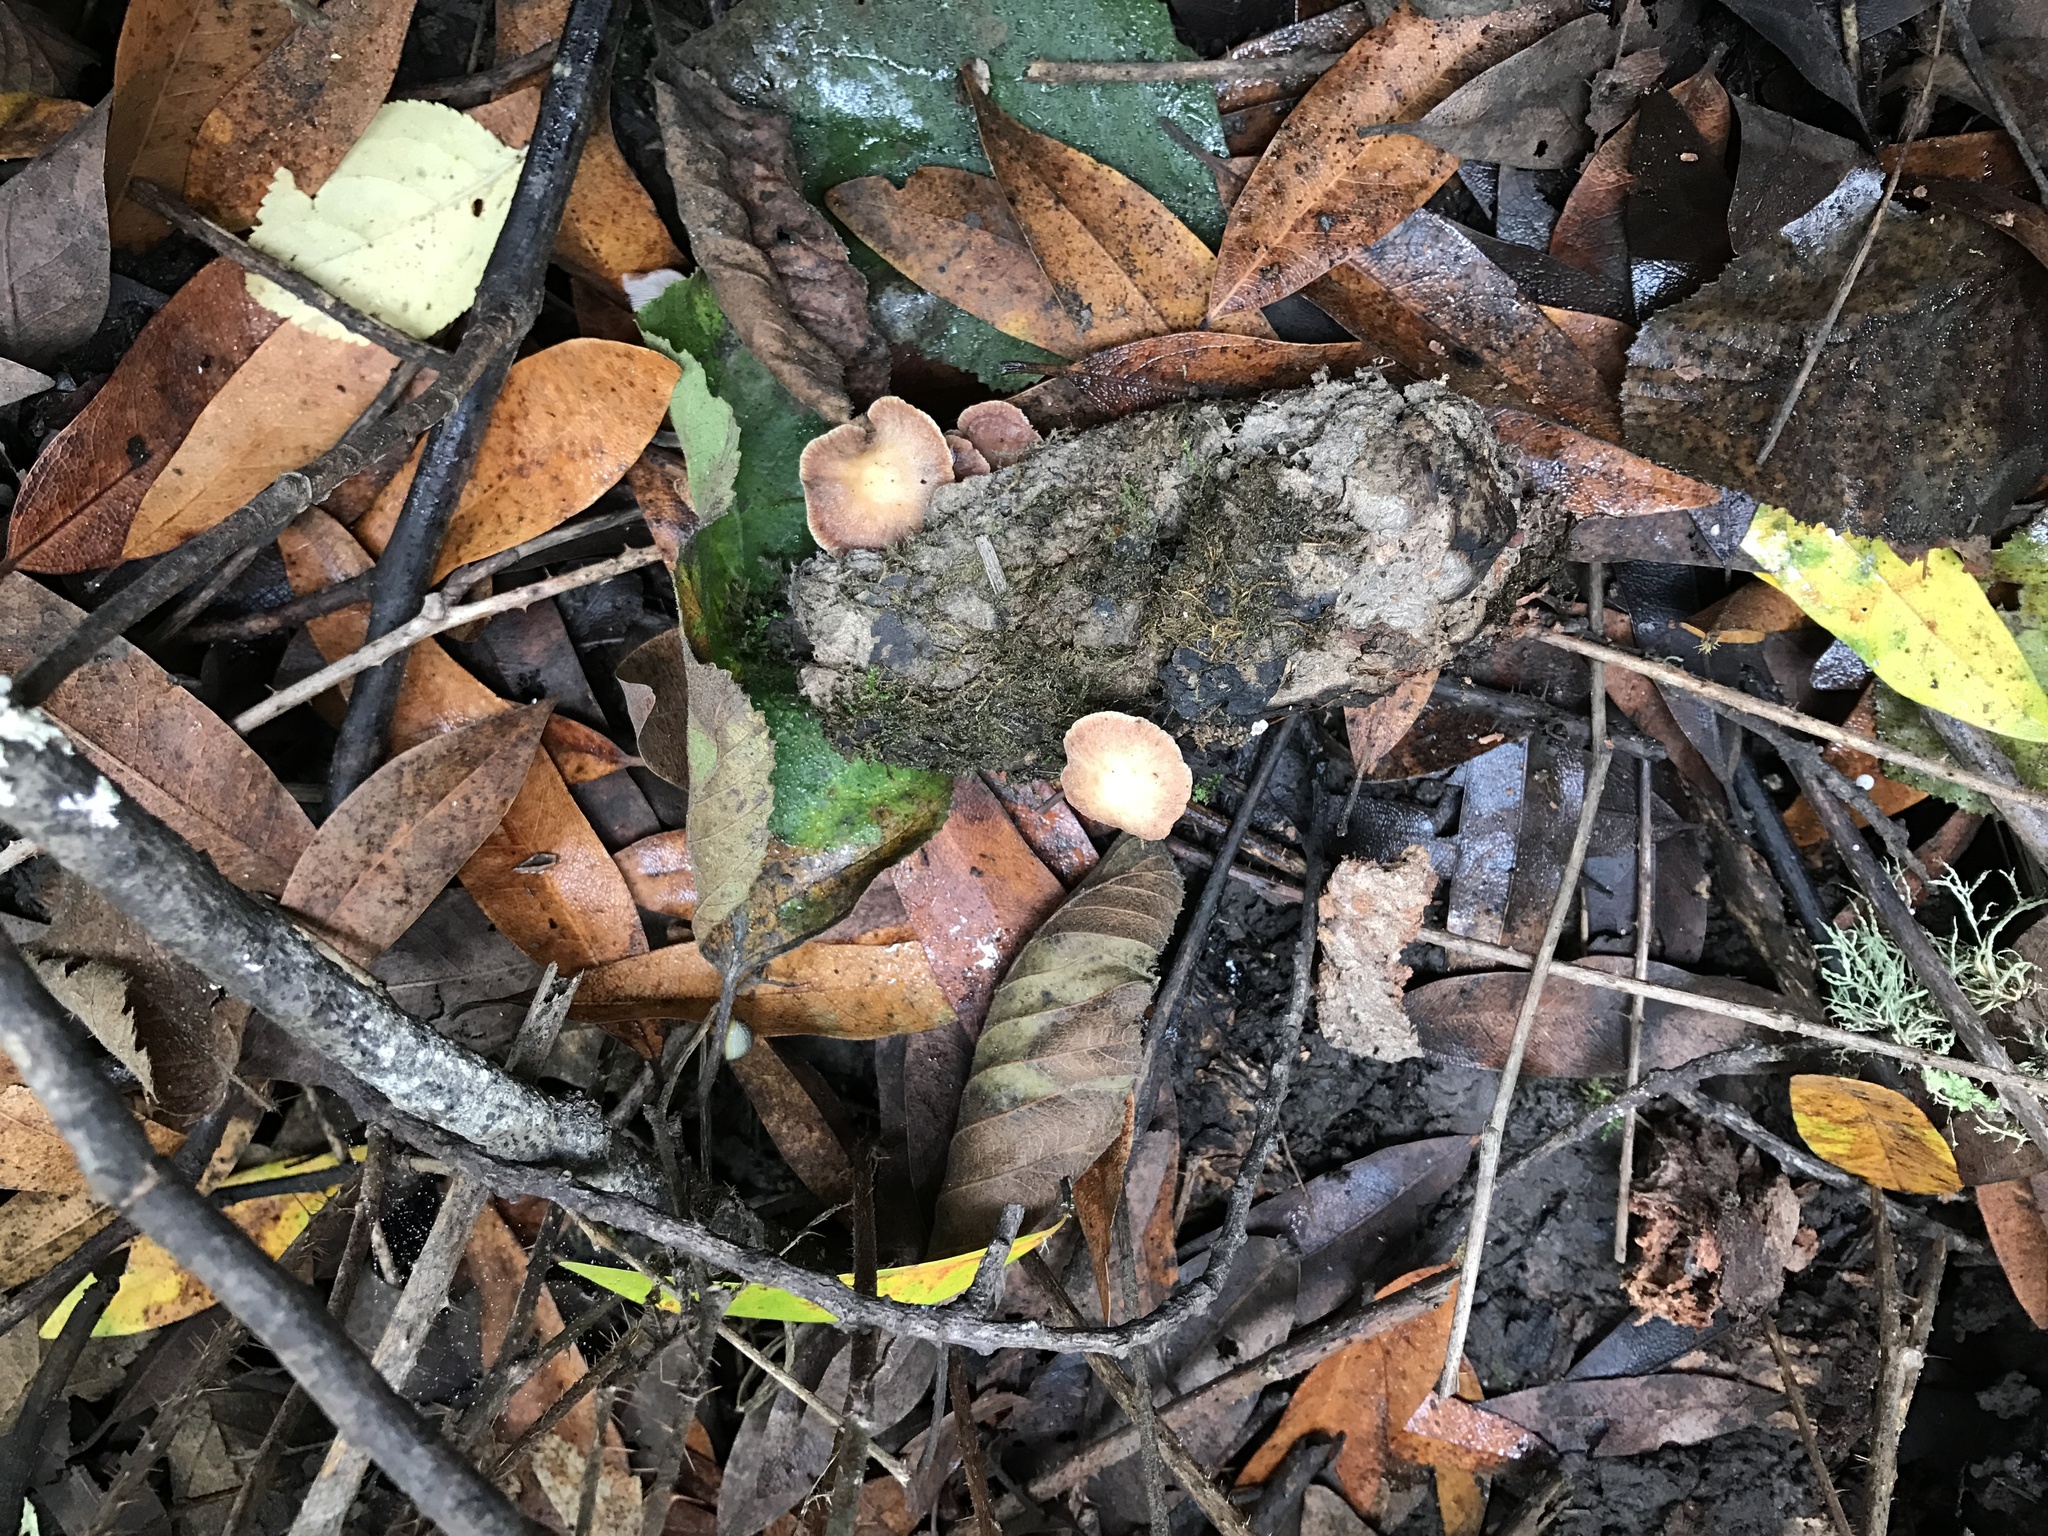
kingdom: Fungi
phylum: Basidiomycota
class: Agaricomycetes
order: Agaricales
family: Omphalotaceae
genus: Gymnopus
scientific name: Gymnopus brassicolens
